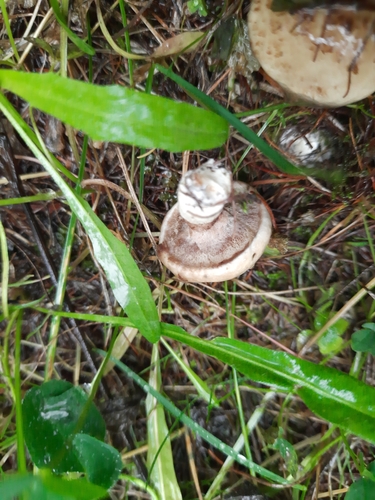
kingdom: Fungi
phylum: Basidiomycota
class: Agaricomycetes
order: Boletales
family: Suillaceae
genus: Suillus
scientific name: Suillus viscidus
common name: Sticky bolete
